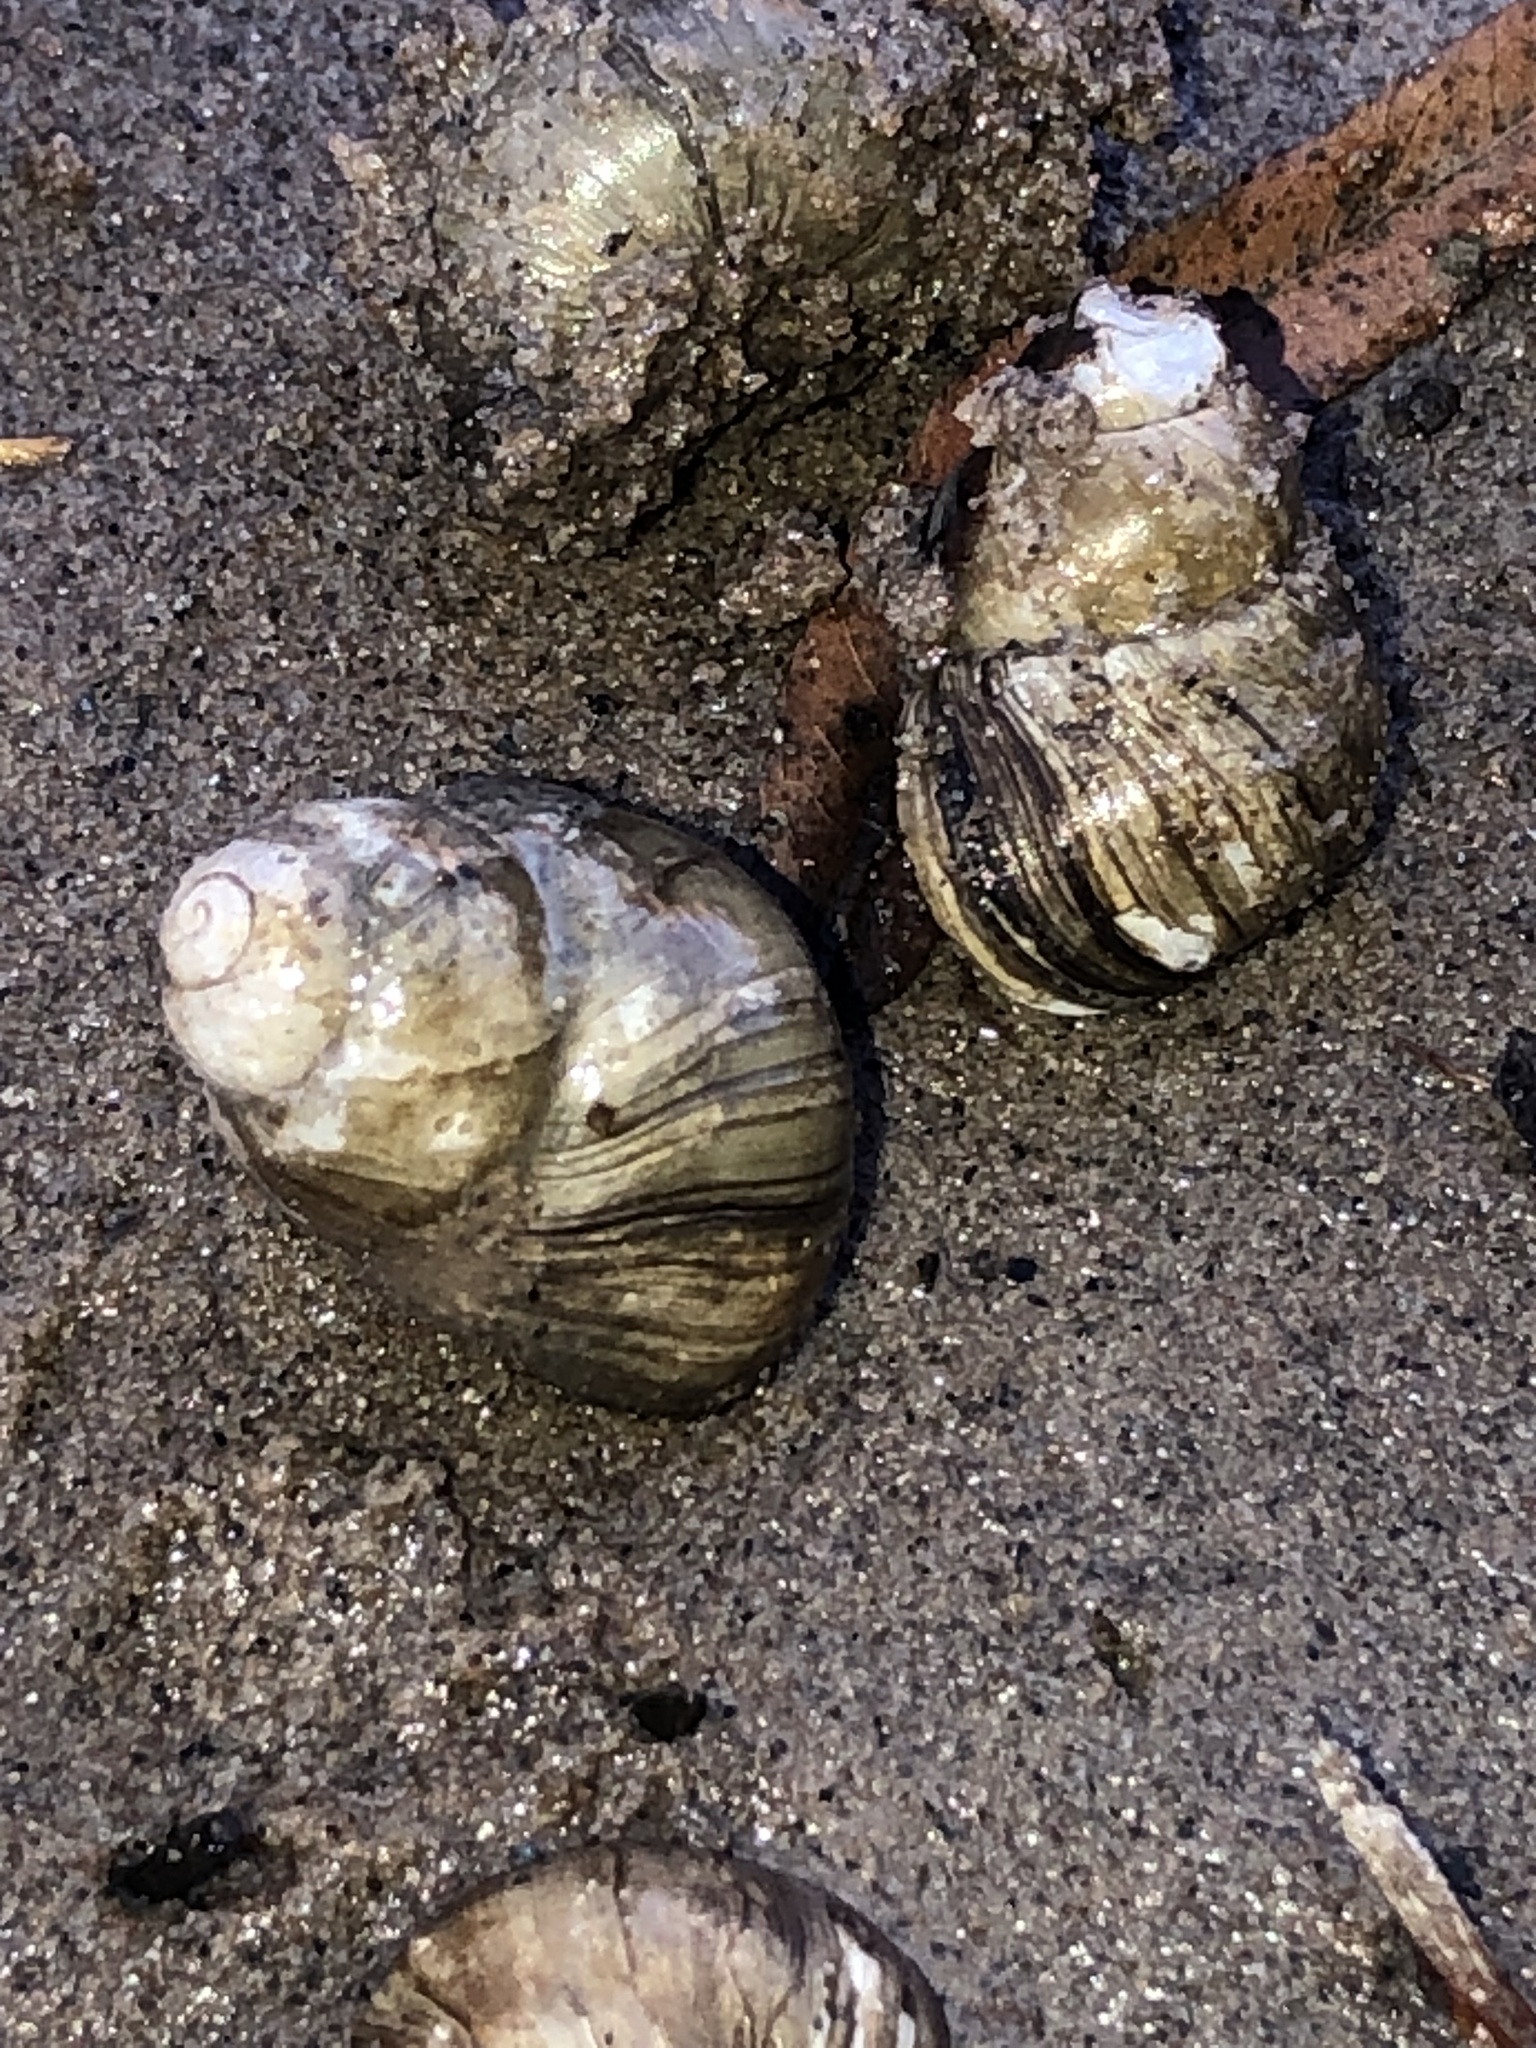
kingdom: Animalia
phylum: Mollusca
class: Gastropoda
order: Architaenioglossa
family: Viviparidae
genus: Campeloma
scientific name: Campeloma decisum
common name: Pointed campeloma
